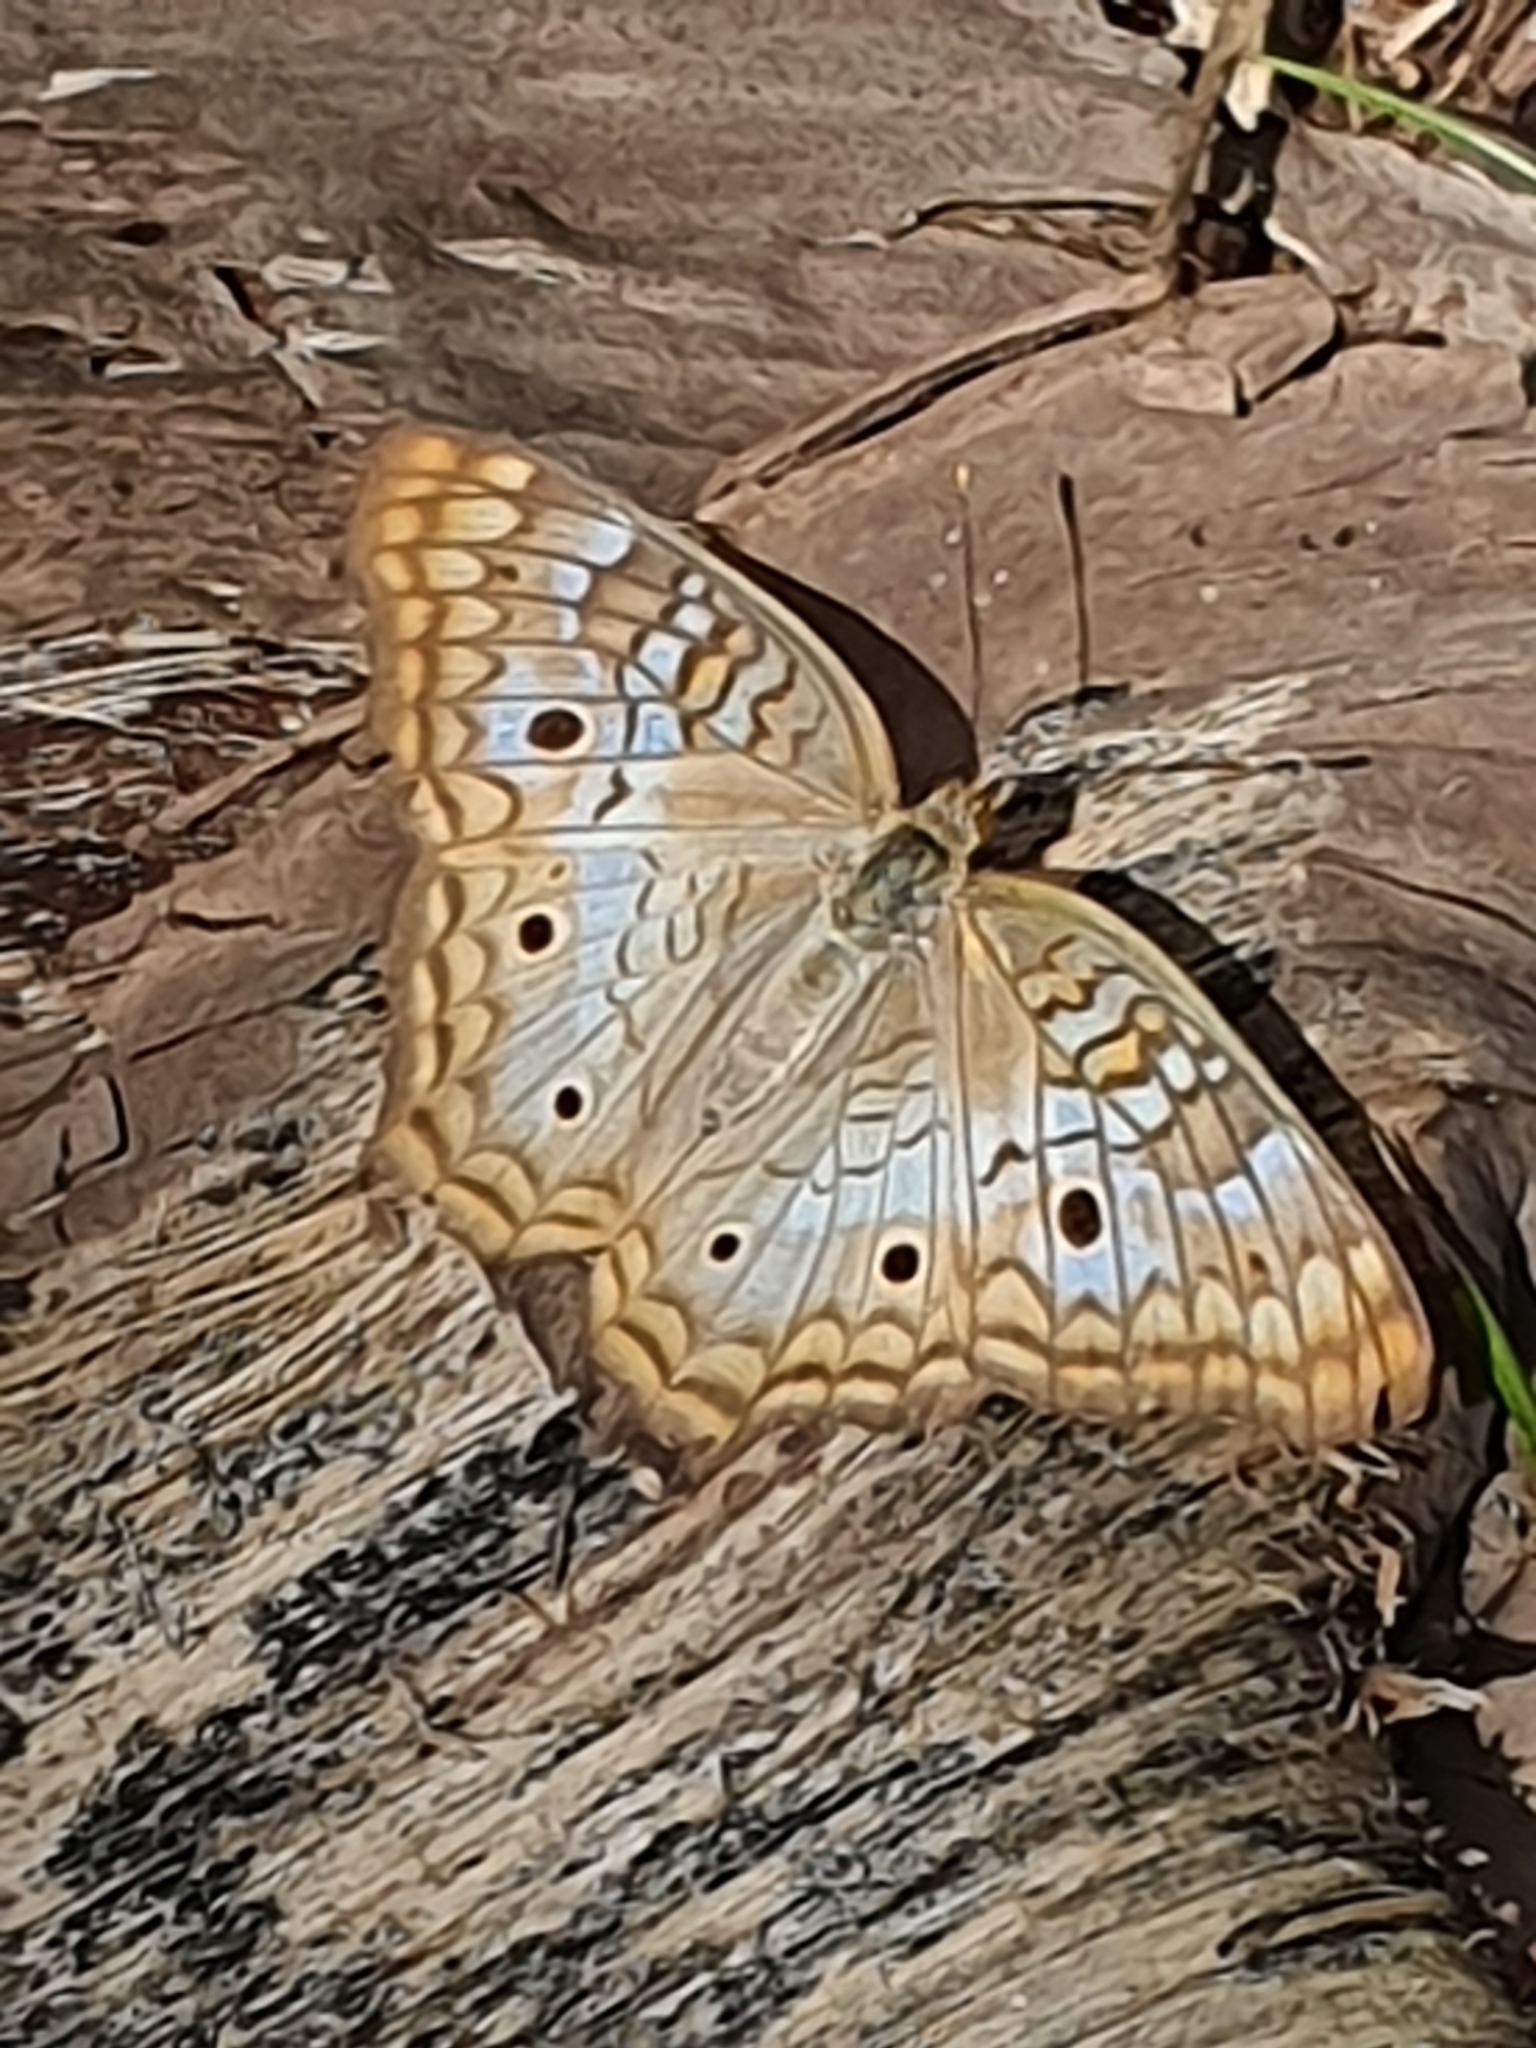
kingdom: Animalia
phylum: Arthropoda
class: Insecta
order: Lepidoptera
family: Nymphalidae
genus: Anartia
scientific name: Anartia jatrophae
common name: White peacock
